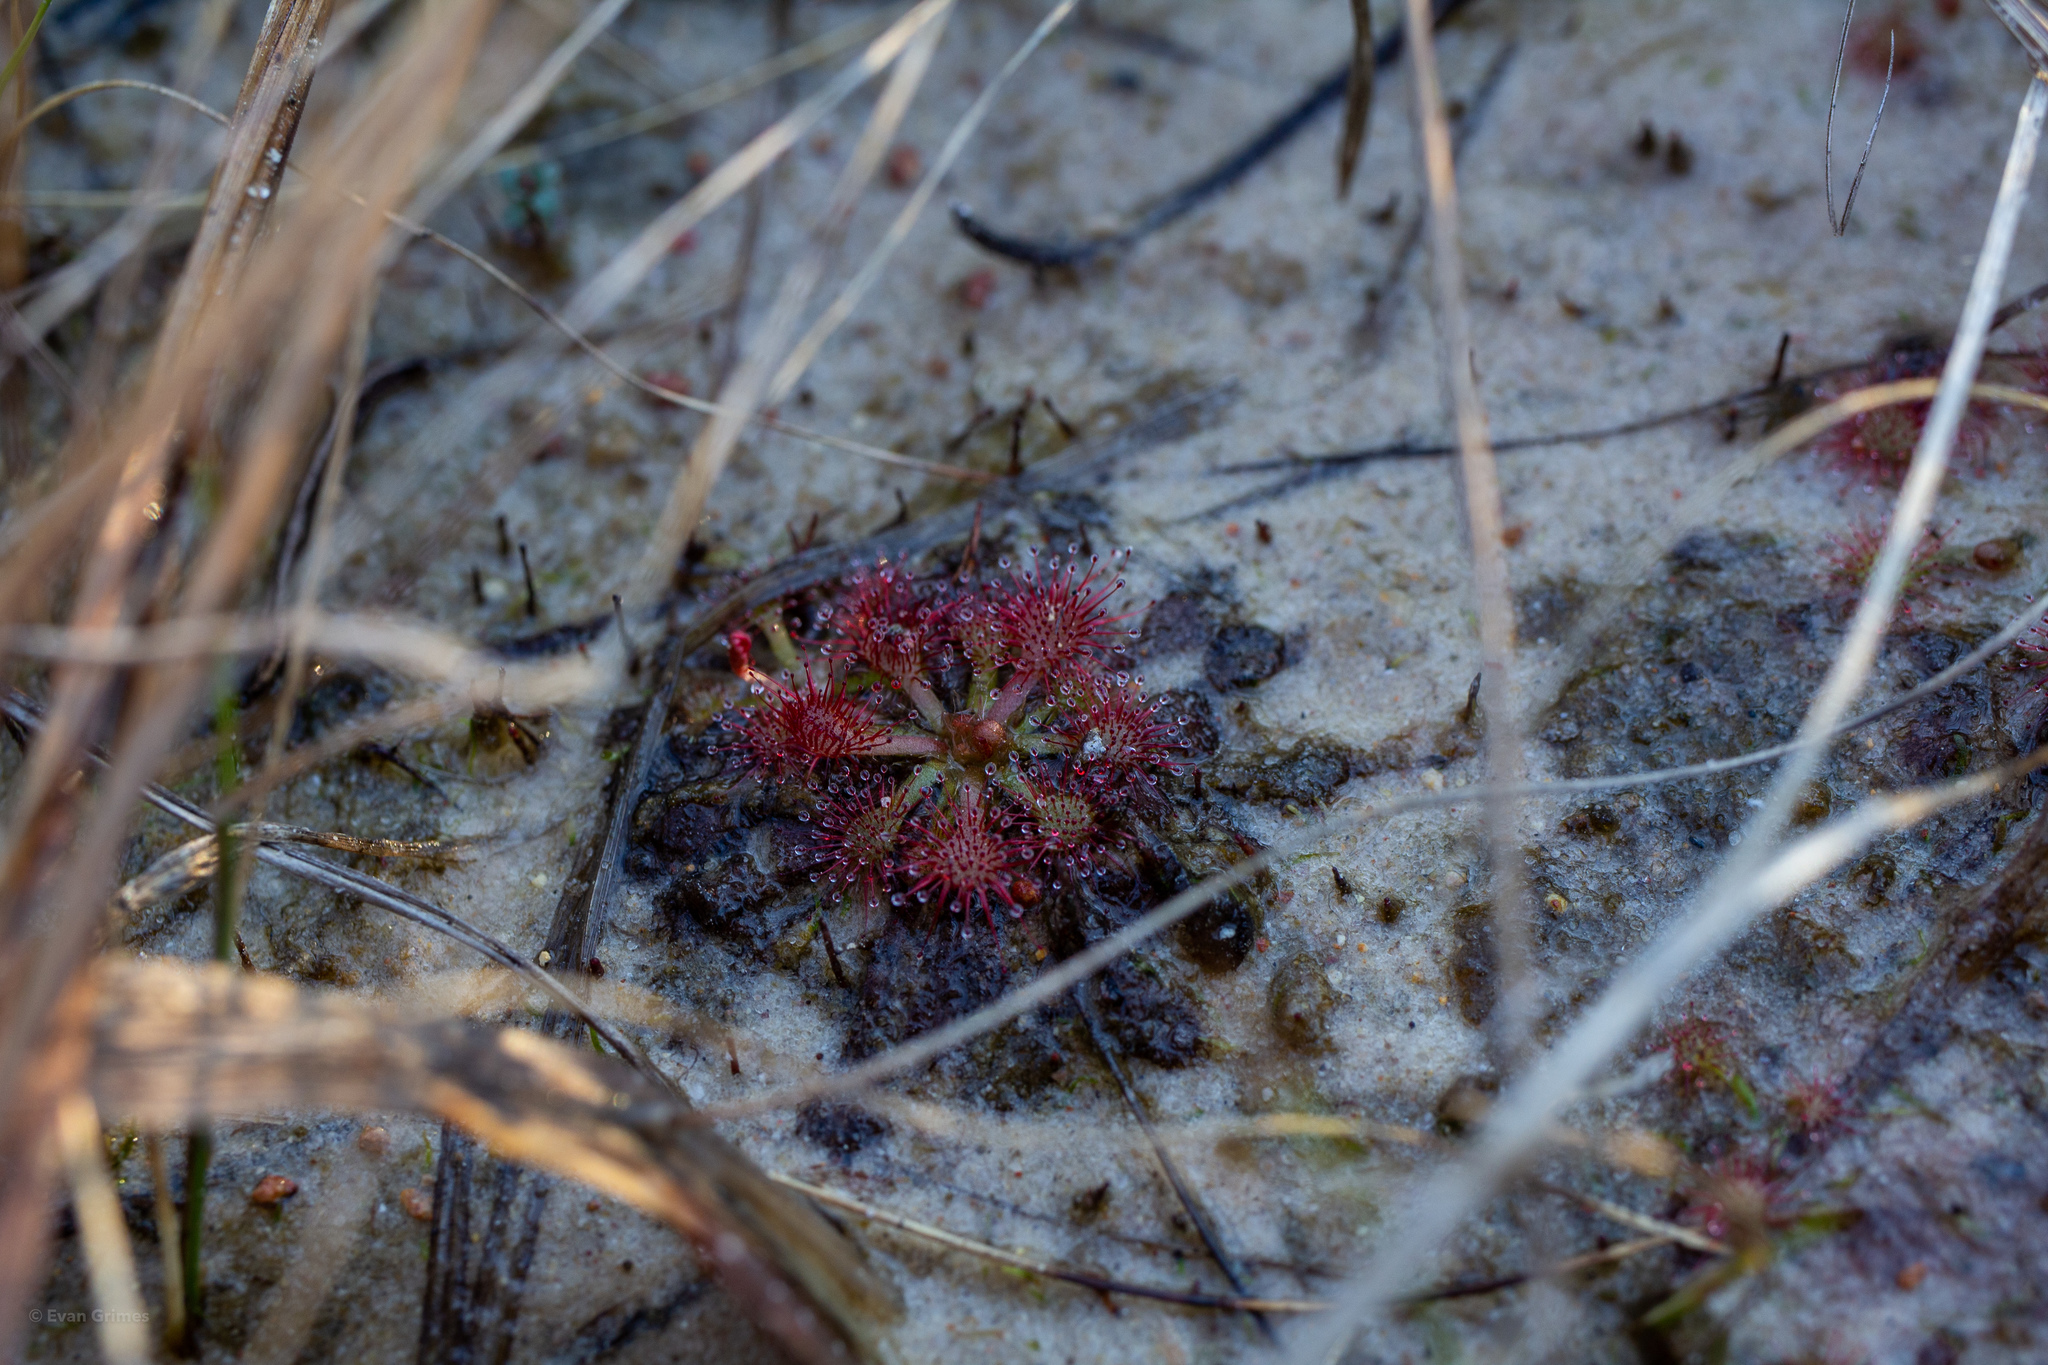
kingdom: Plantae
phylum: Tracheophyta
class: Magnoliopsida
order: Caryophyllales
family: Droseraceae
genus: Drosera
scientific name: Drosera capillaris
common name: Pink sundew
